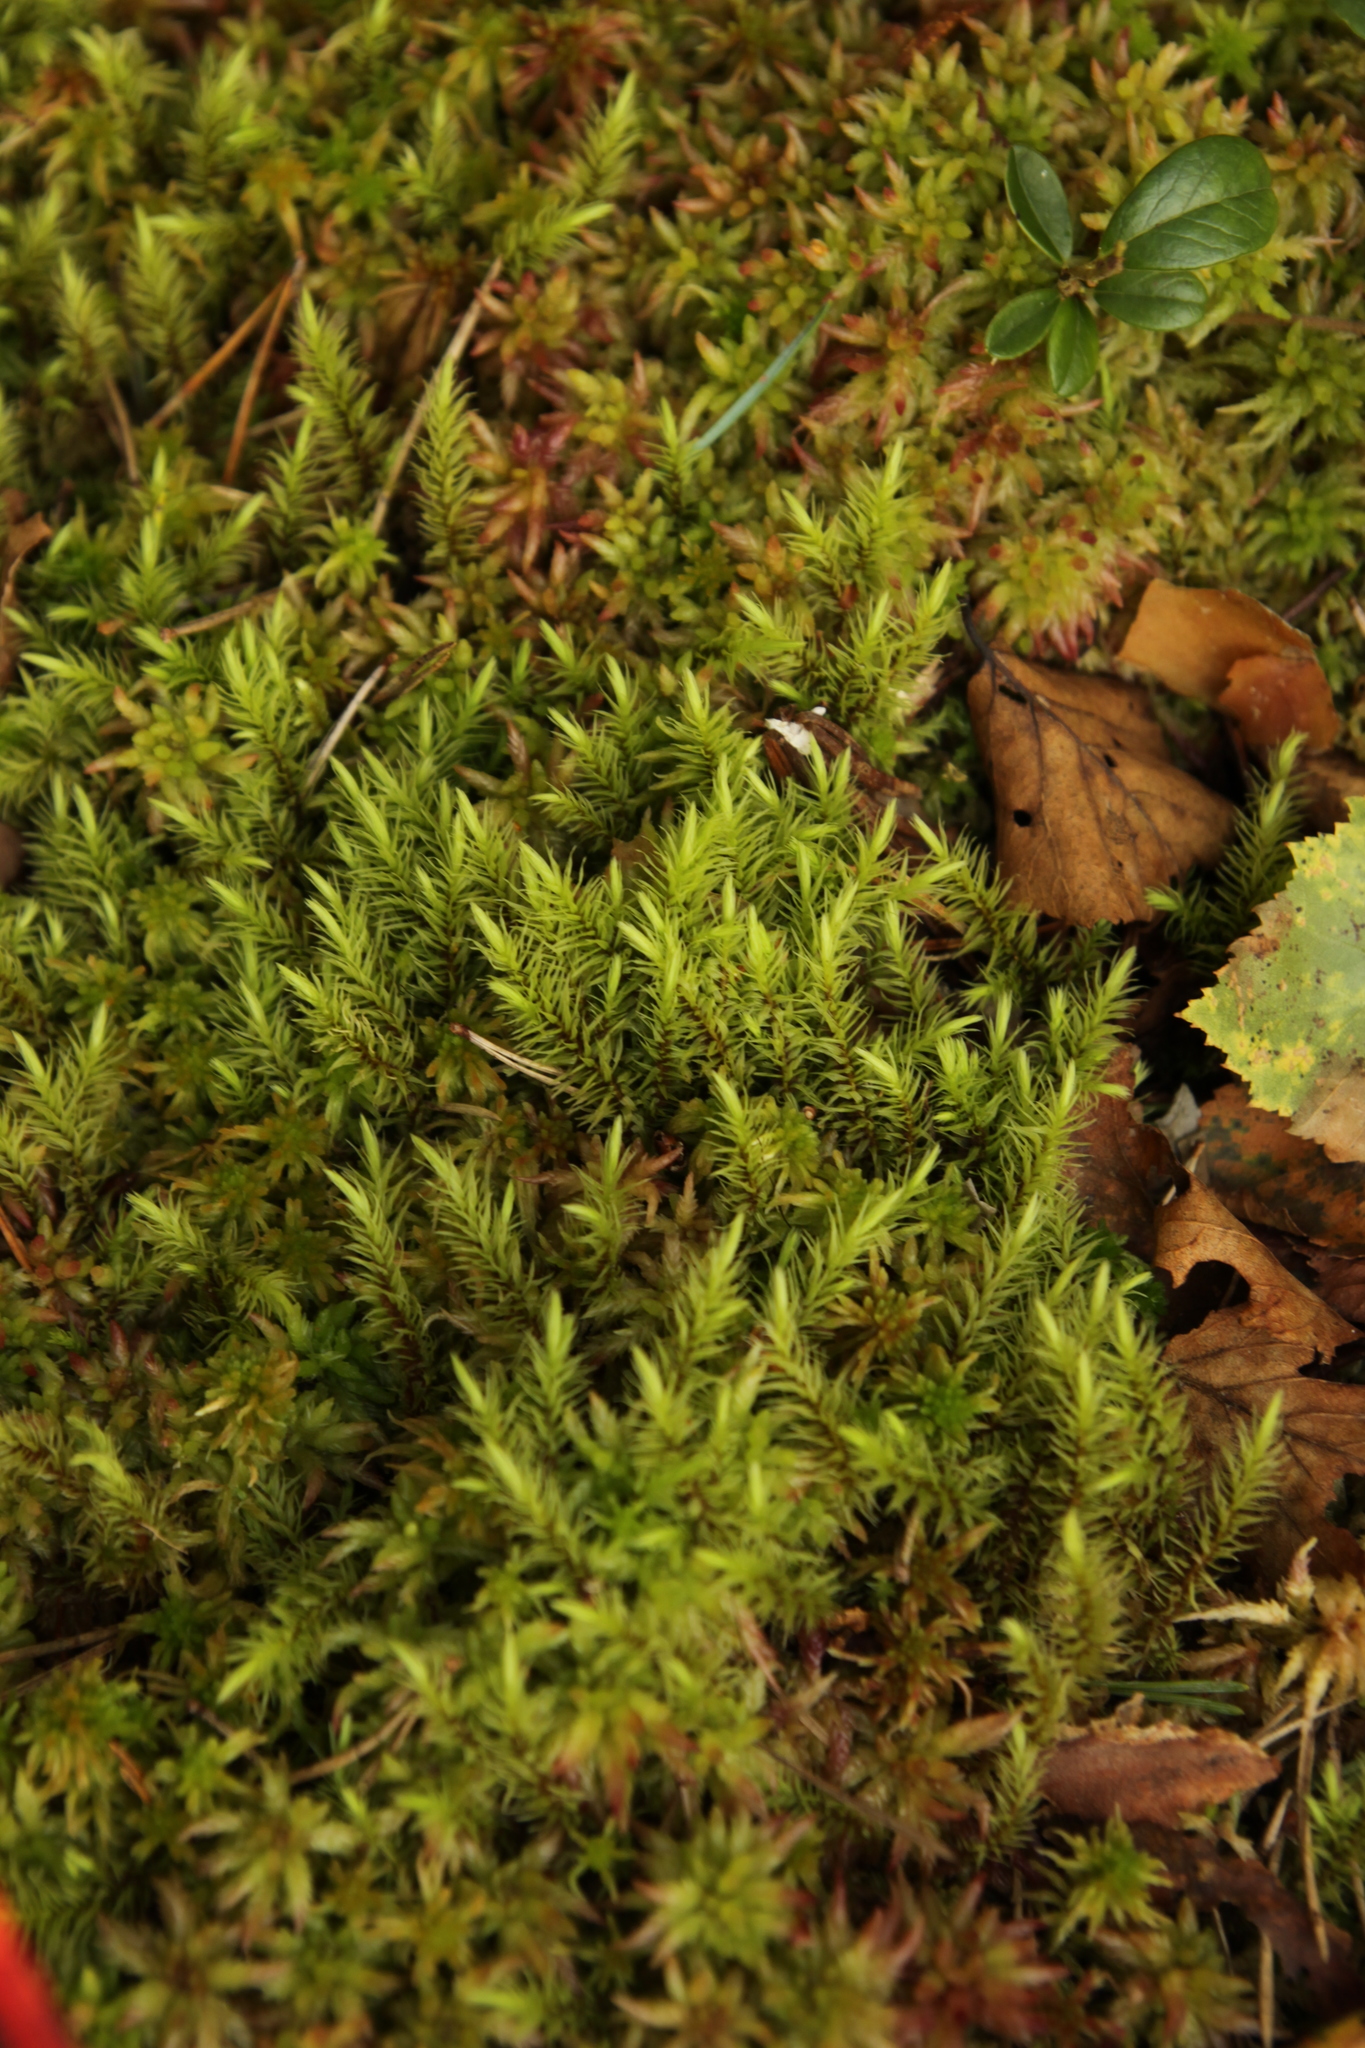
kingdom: Plantae
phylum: Bryophyta
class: Bryopsida
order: Aulacomniales
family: Aulacomniaceae
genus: Aulacomnium
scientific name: Aulacomnium palustre
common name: Bog groove-moss
